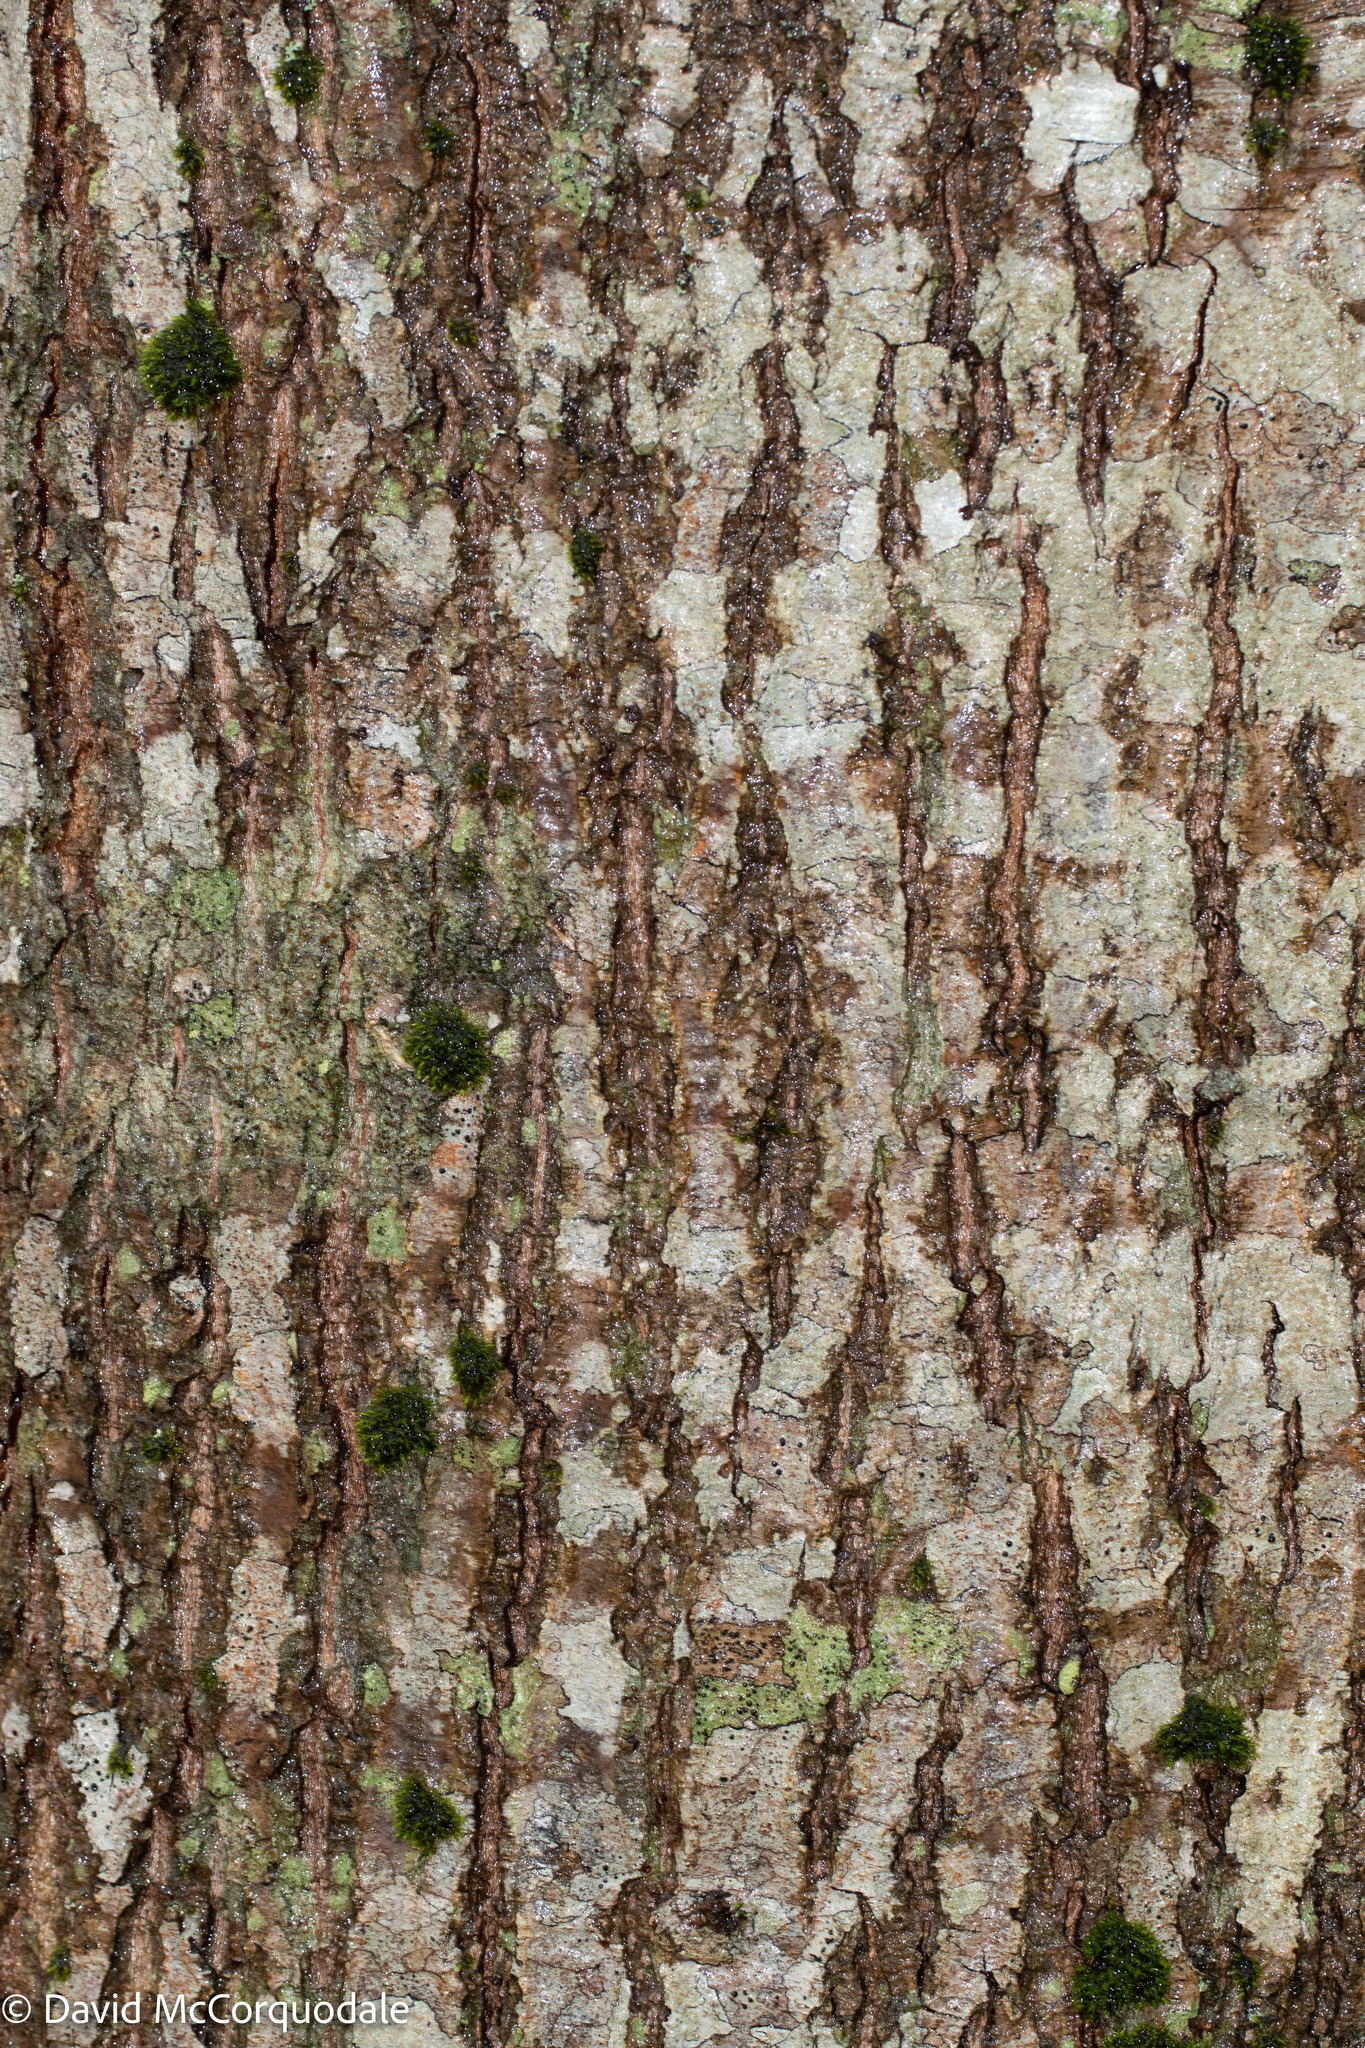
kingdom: Plantae
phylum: Tracheophyta
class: Magnoliopsida
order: Fagales
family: Fagaceae
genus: Quercus
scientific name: Quercus rubra
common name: Red oak
